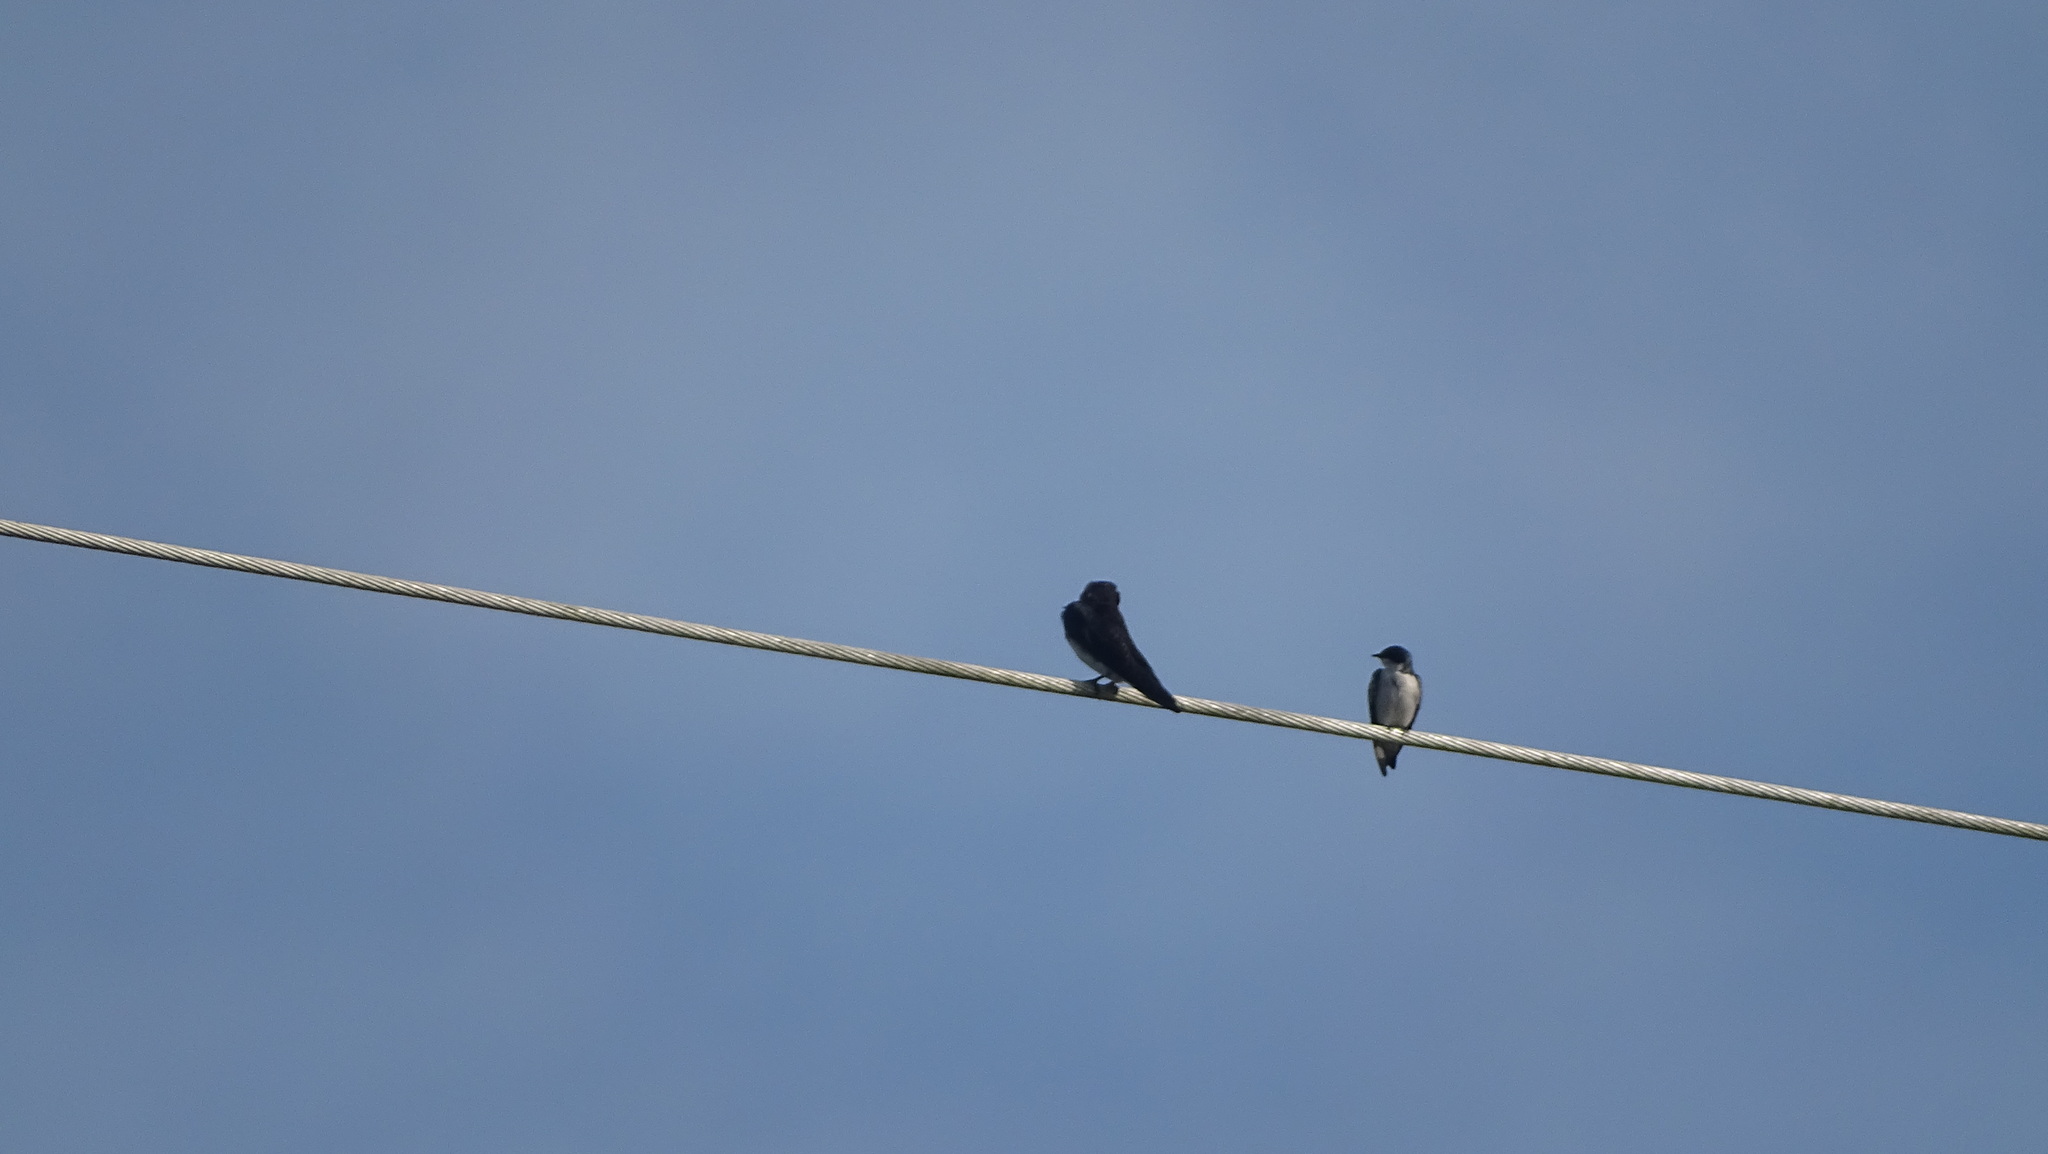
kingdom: Animalia
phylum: Chordata
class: Aves
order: Passeriformes
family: Hirundinidae
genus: Progne
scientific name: Progne chalybea
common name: Grey-breasted martin
